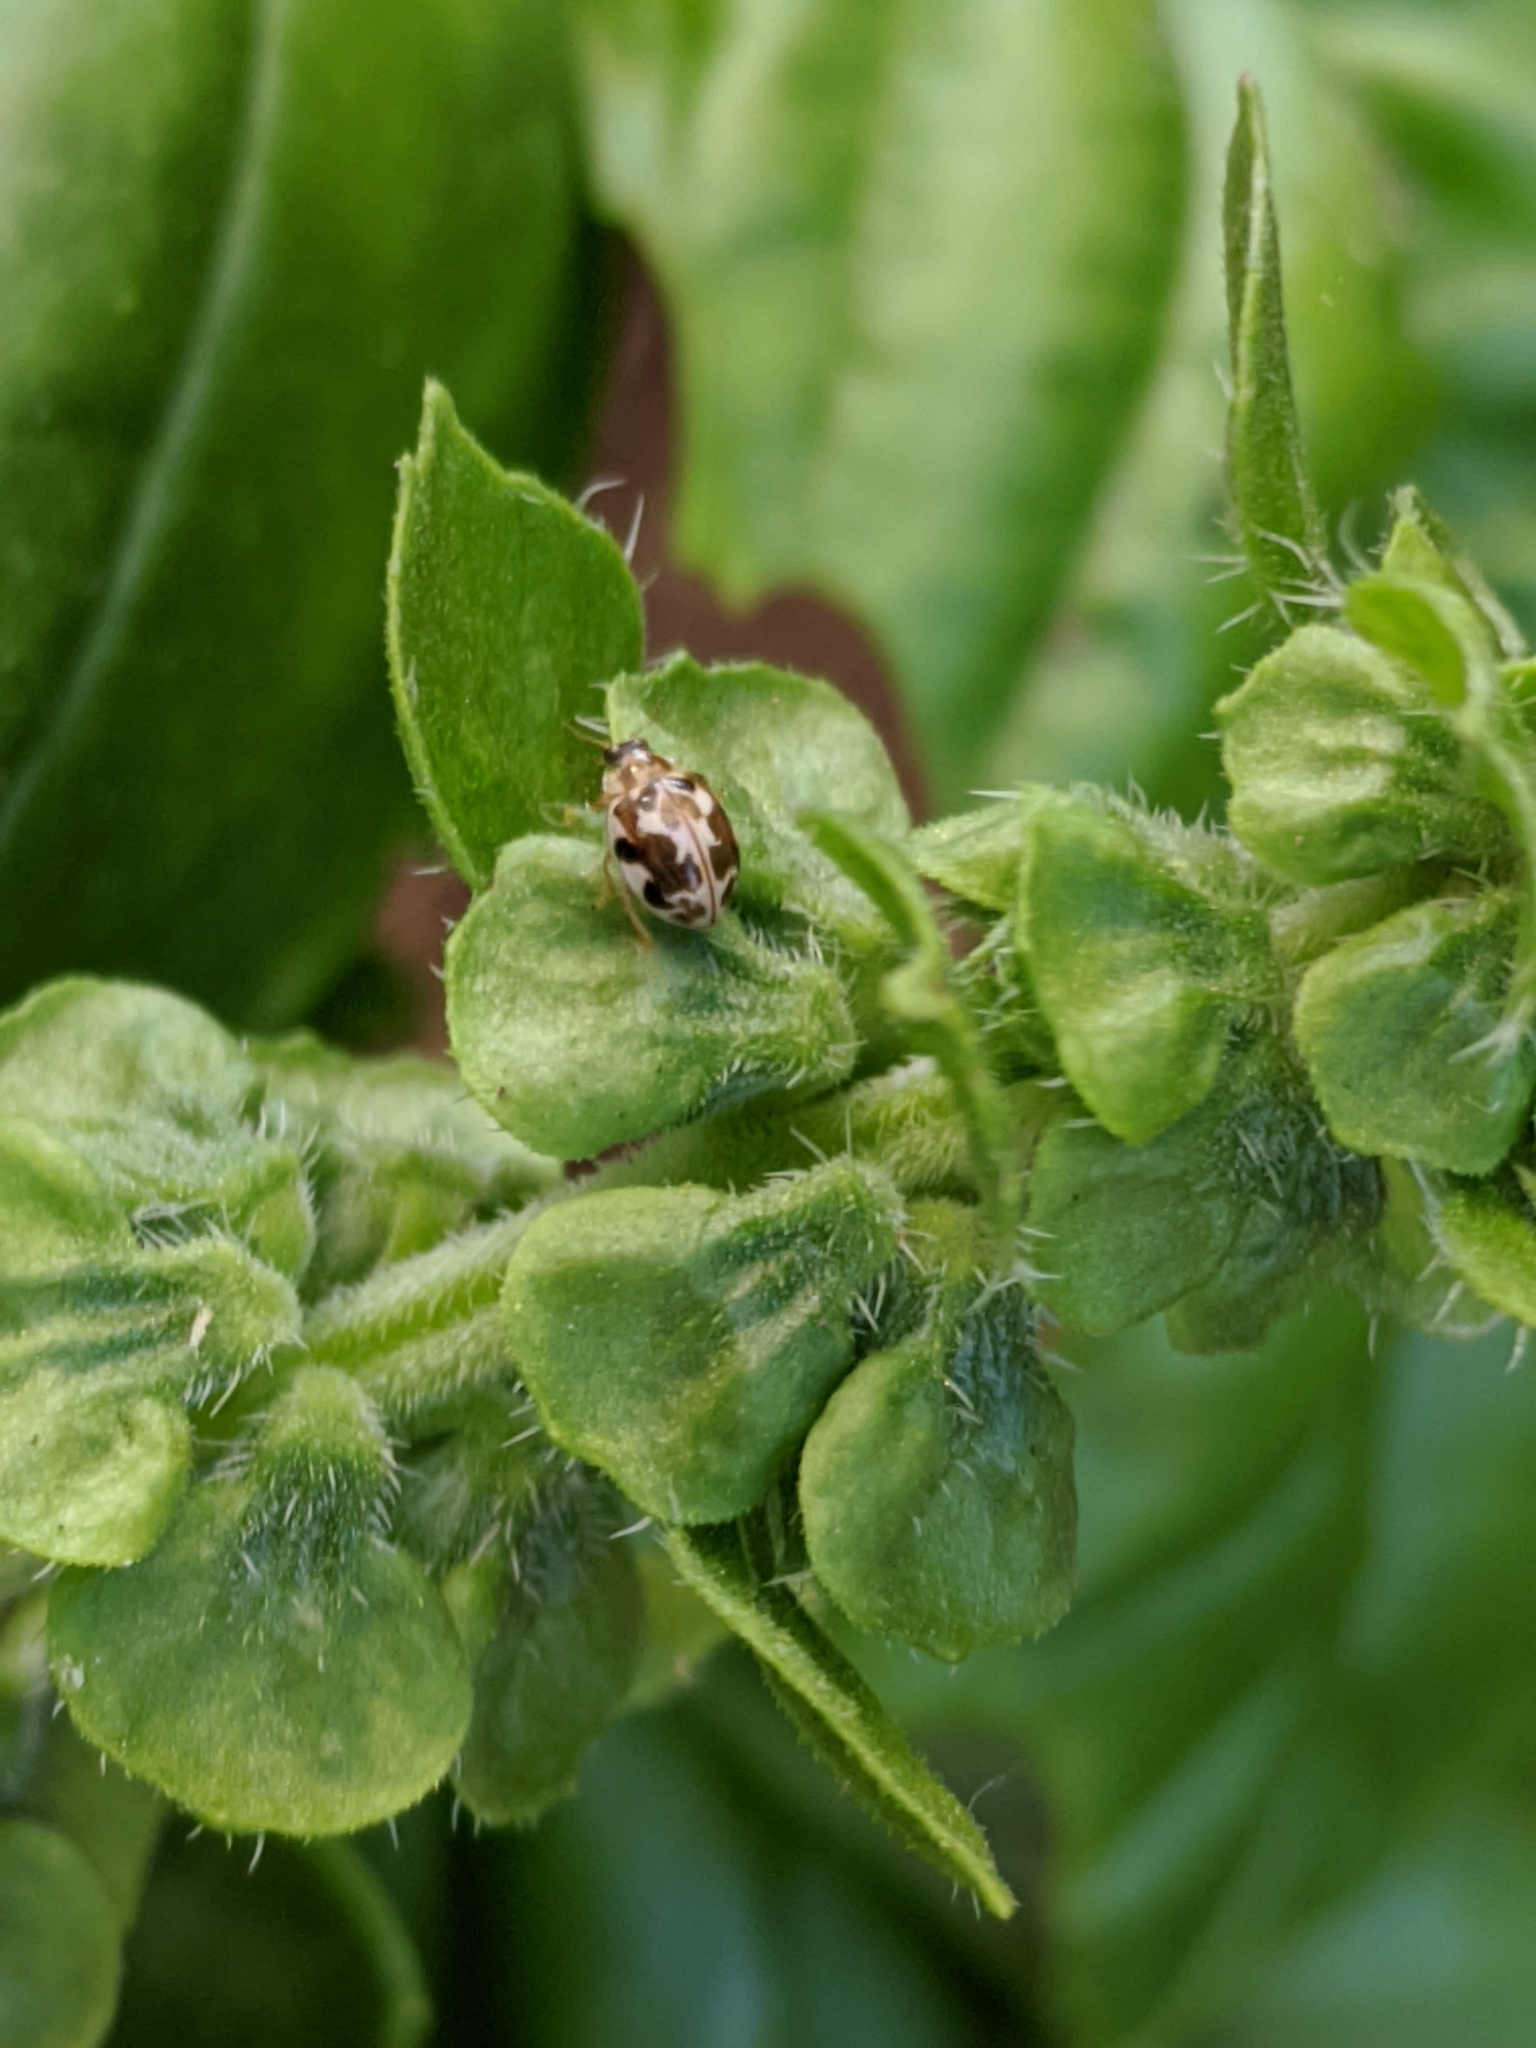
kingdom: Animalia
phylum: Arthropoda
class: Insecta
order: Coleoptera
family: Coccinellidae
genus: Psyllobora
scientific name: Psyllobora vigintimaculata
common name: Ladybird beetle
